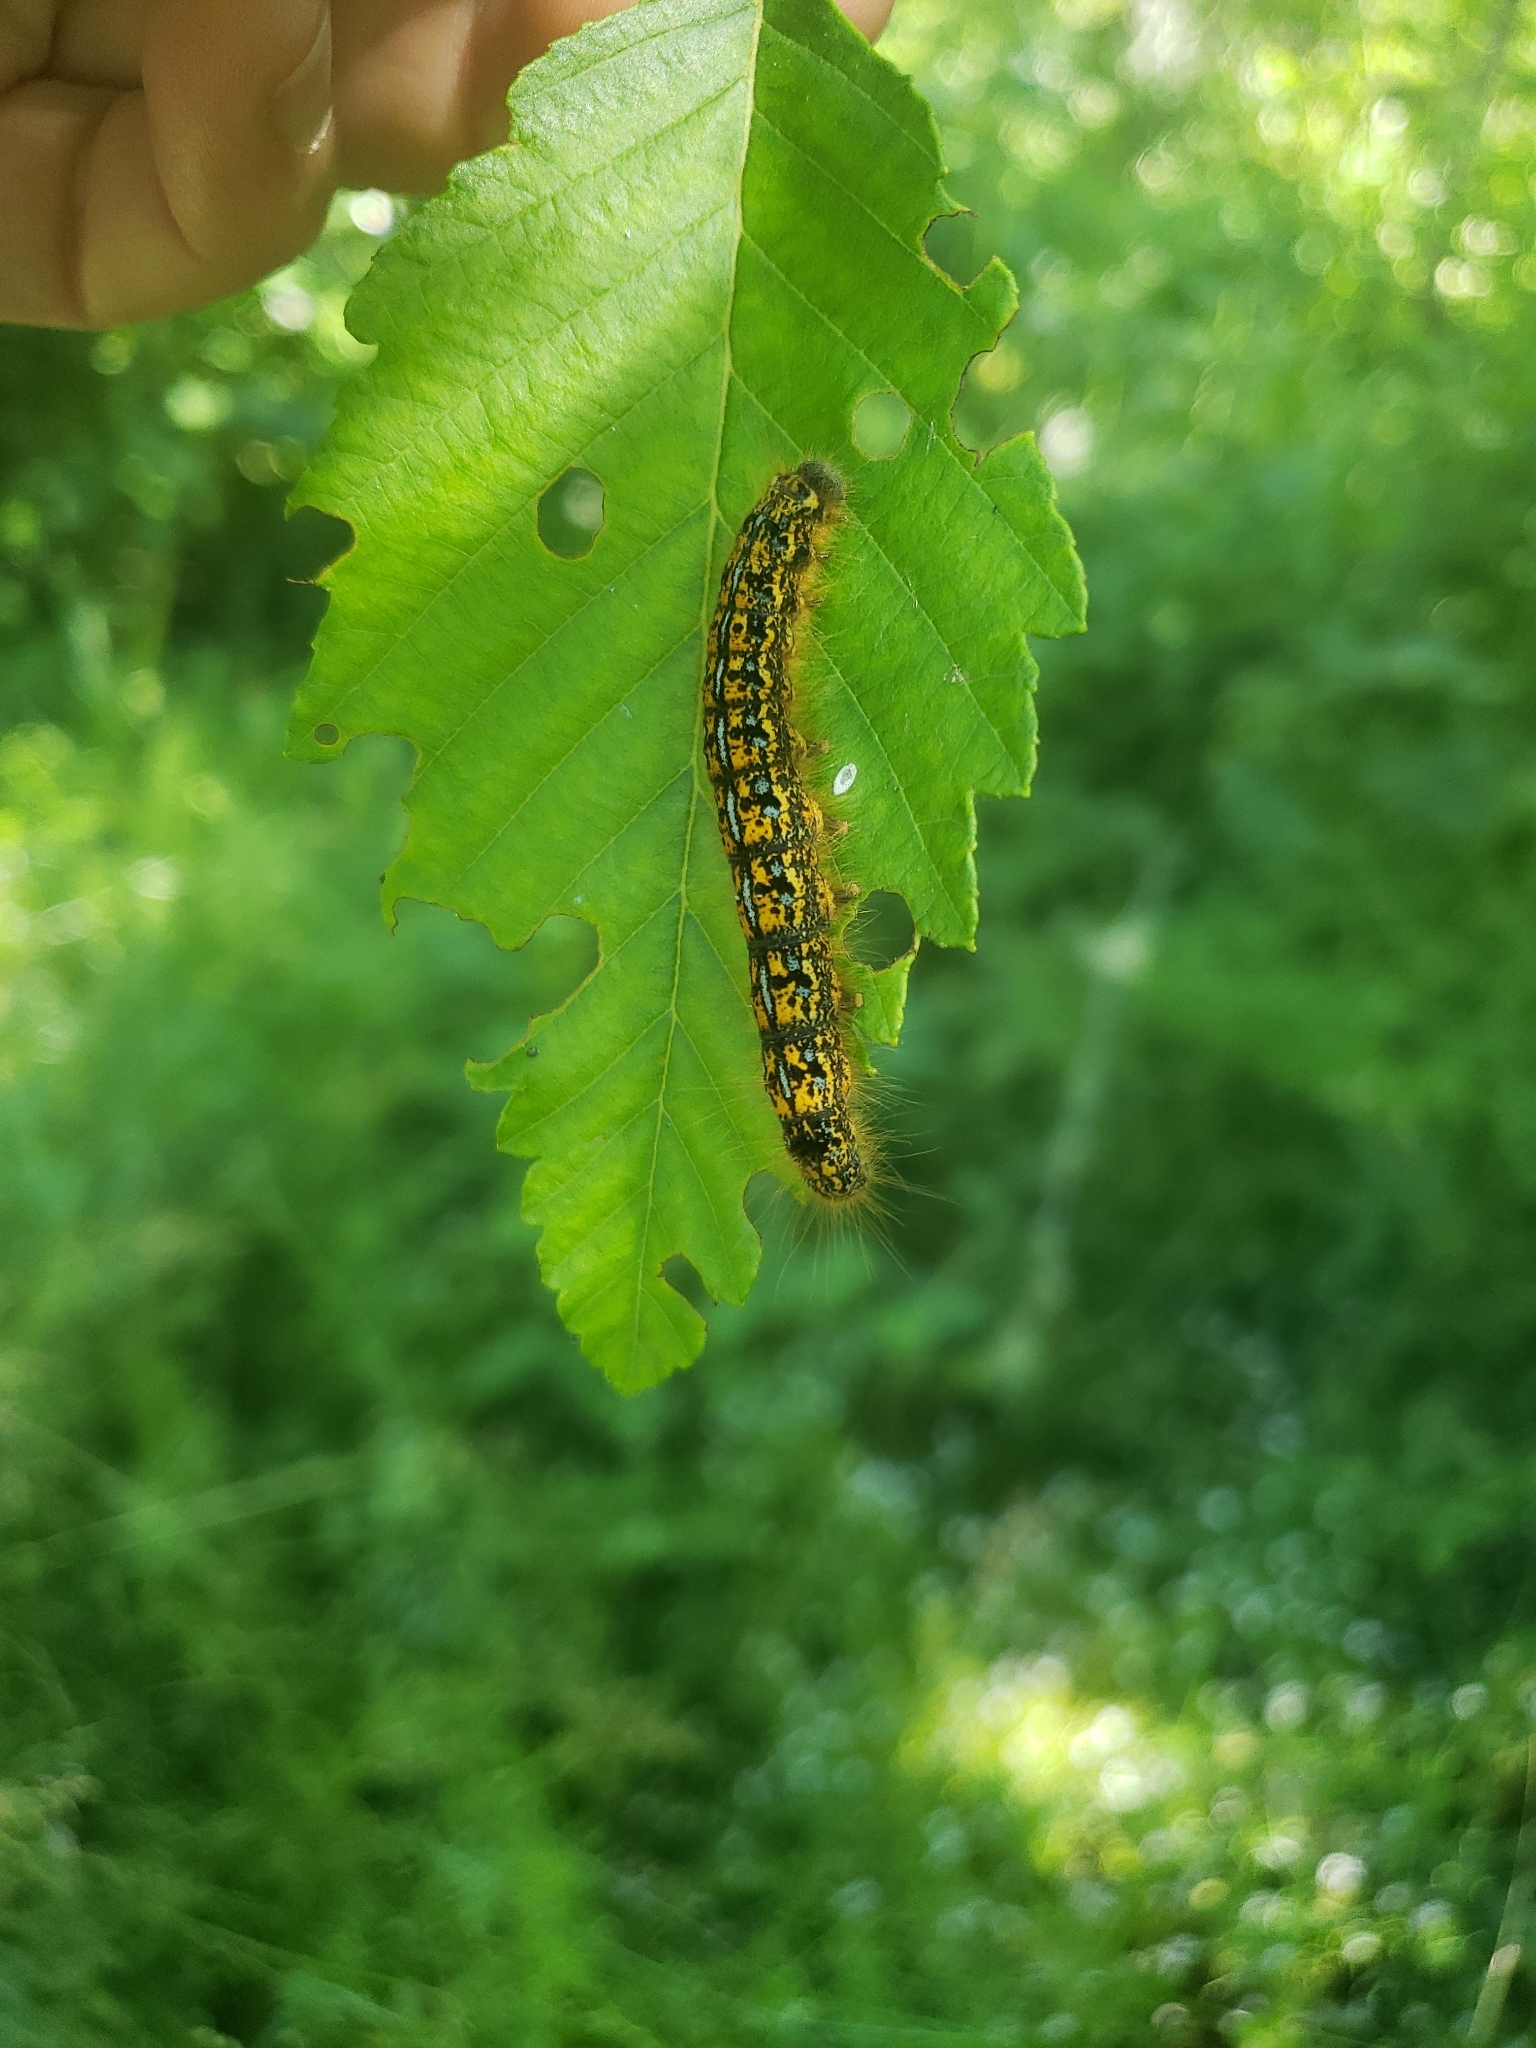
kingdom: Animalia
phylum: Arthropoda
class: Insecta
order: Lepidoptera
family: Lasiocampidae
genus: Malacosoma
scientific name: Malacosoma californica
